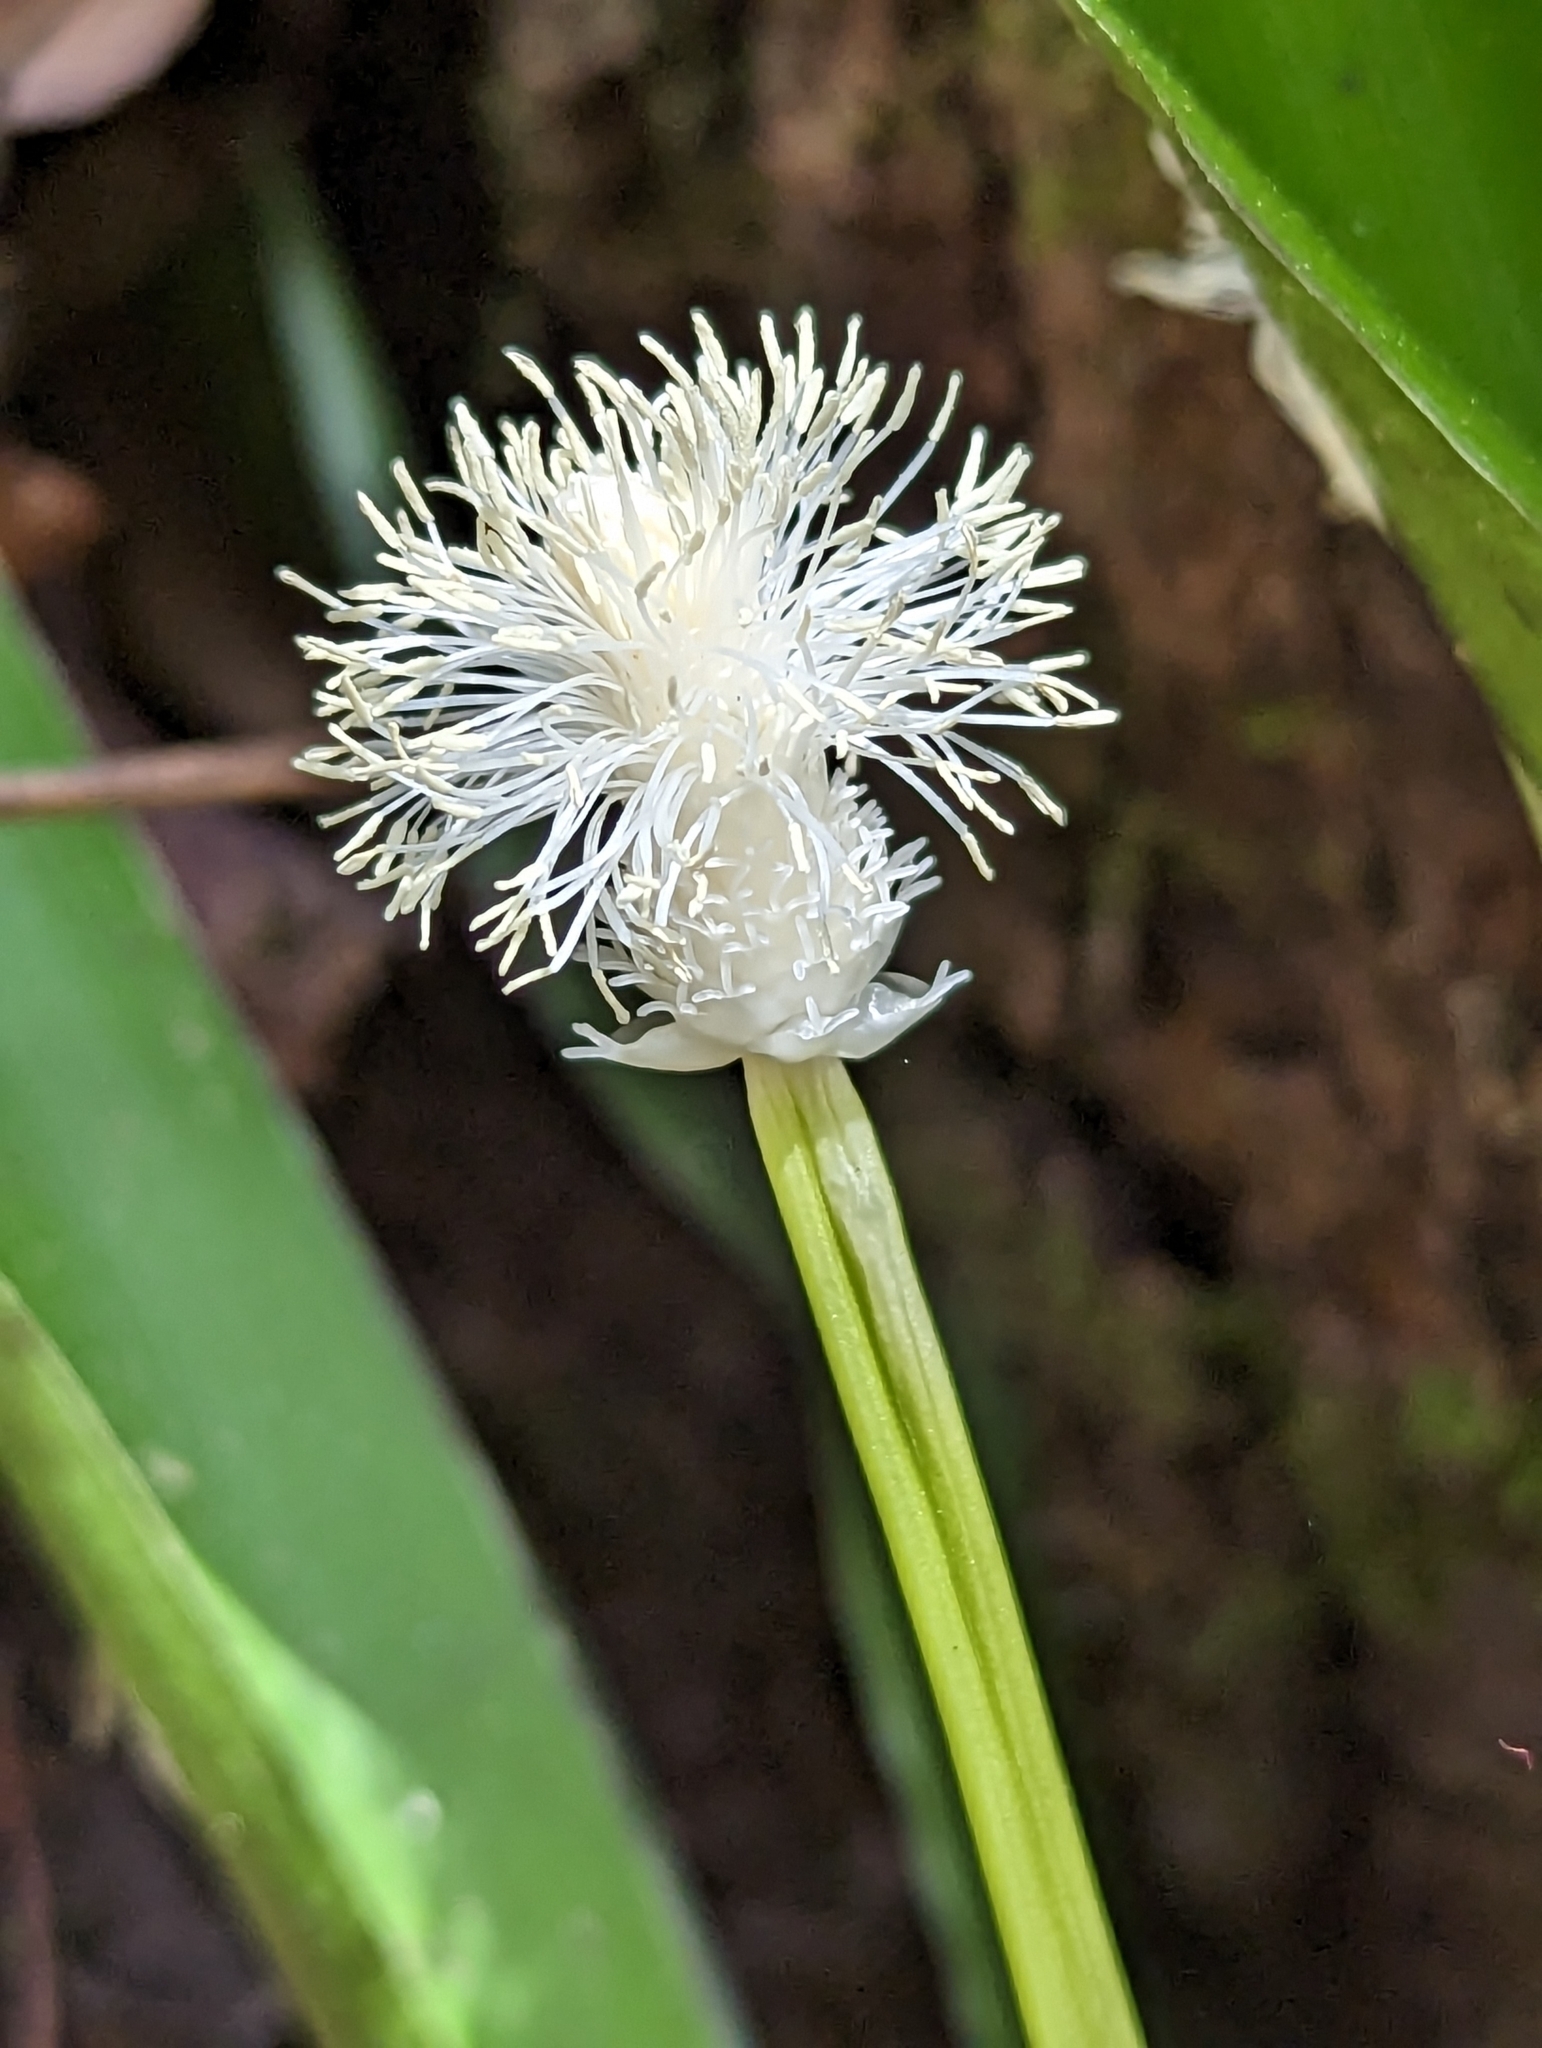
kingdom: Plantae
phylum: Tracheophyta
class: Liliopsida
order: Poales
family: Cyperaceae
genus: Carex
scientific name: Carex fraseriana
